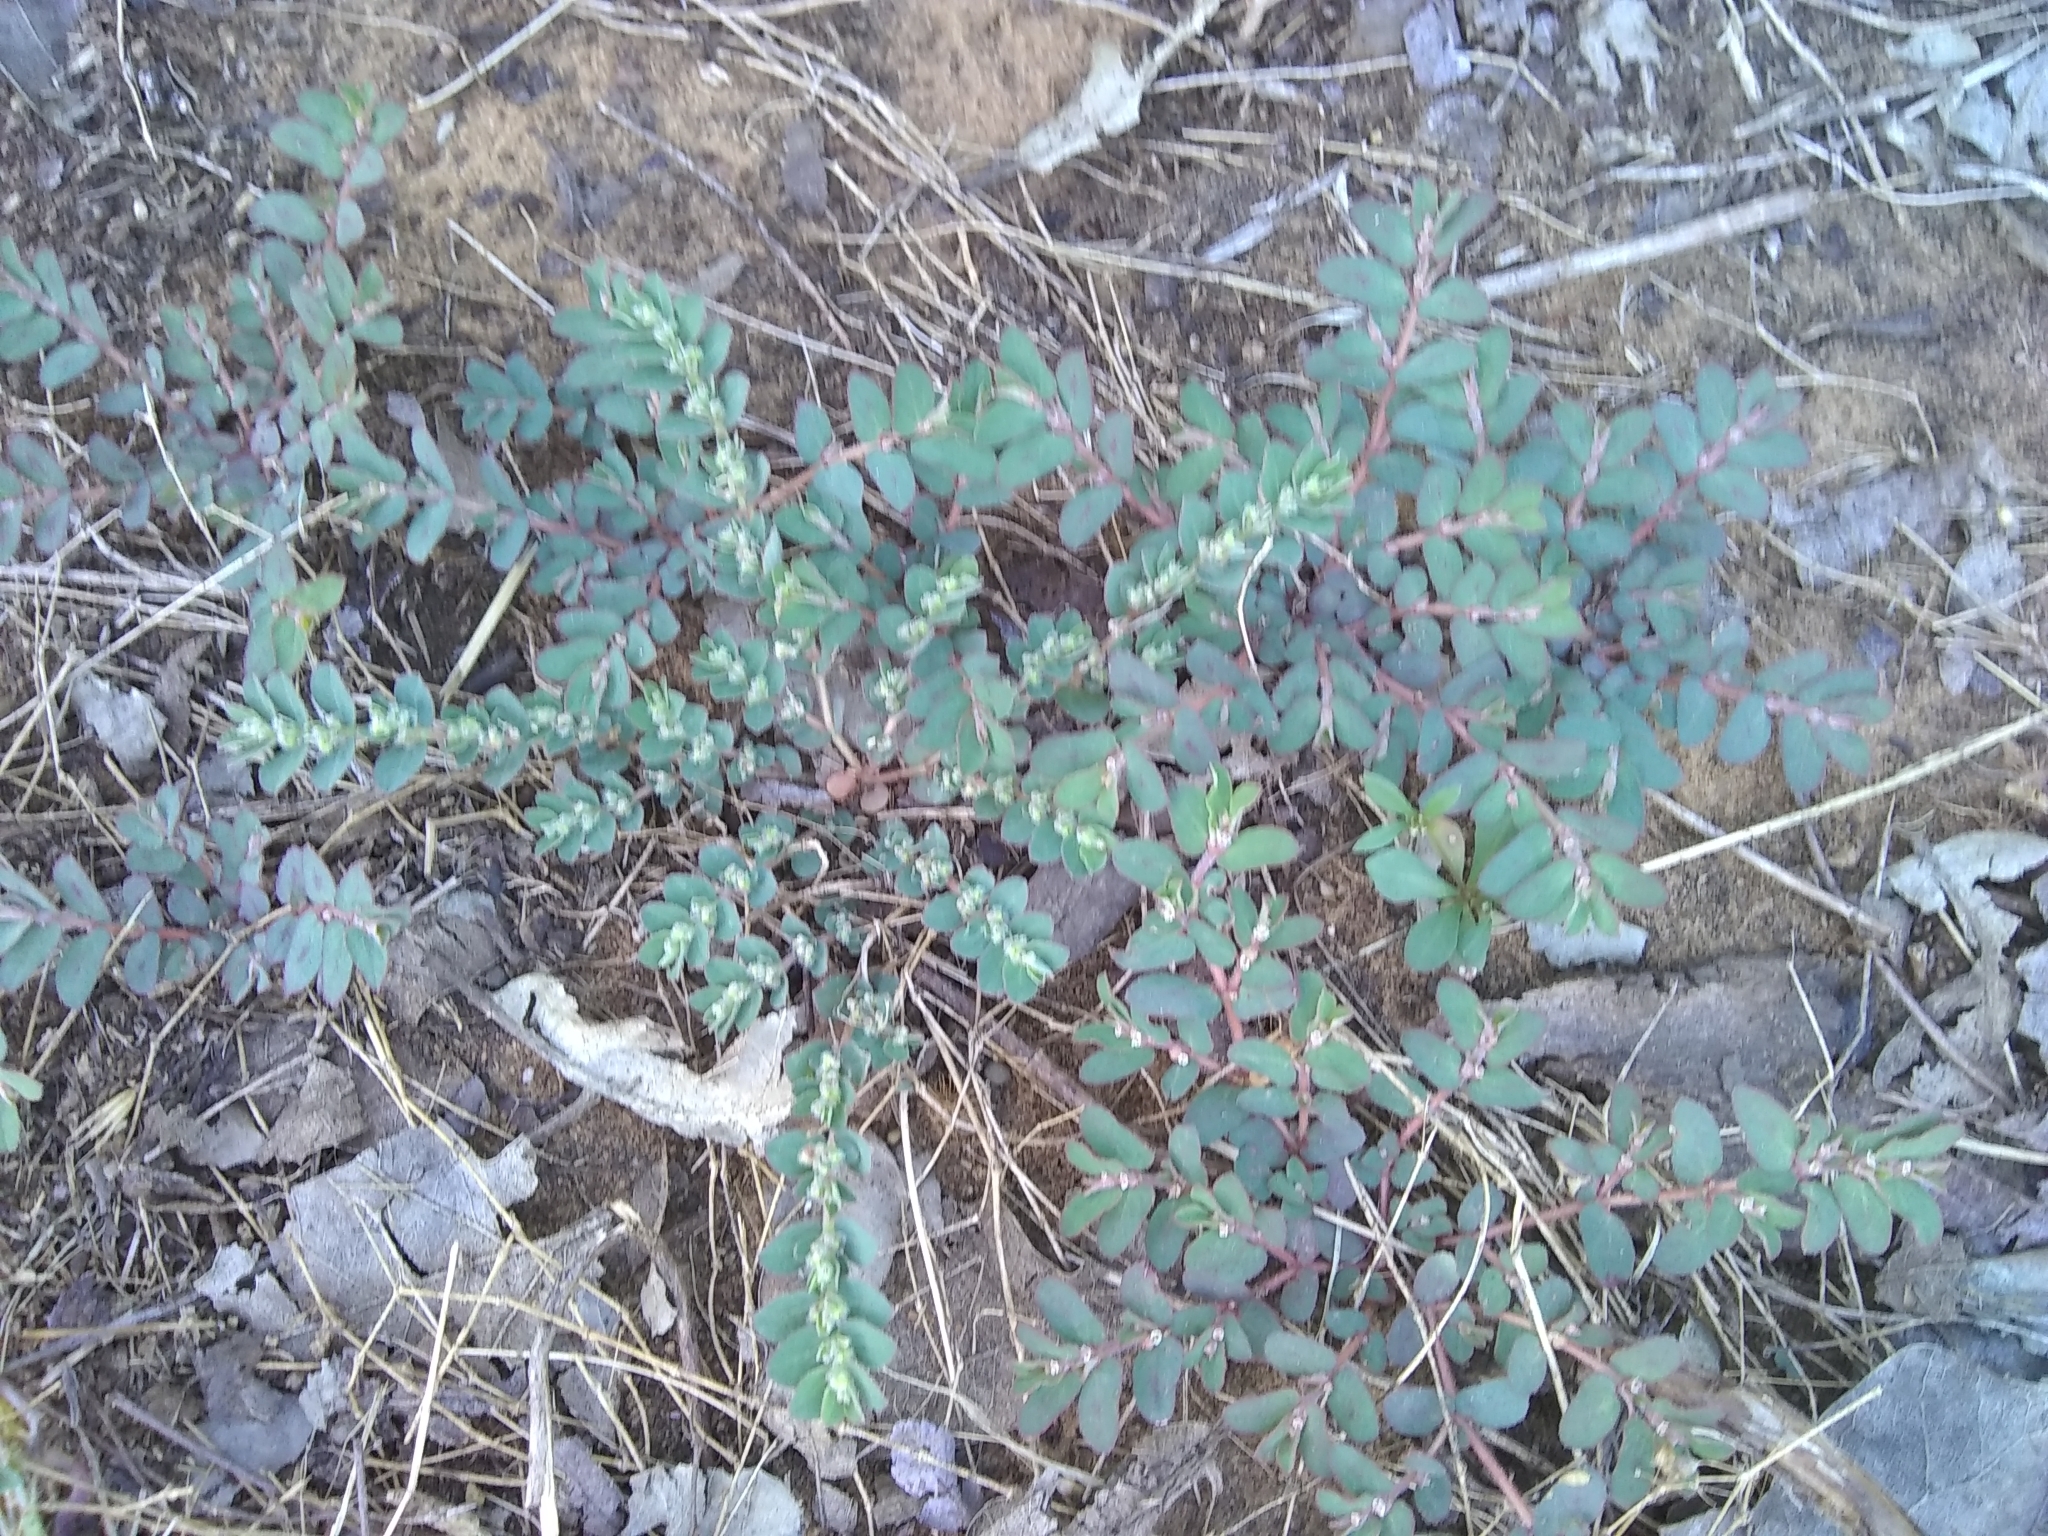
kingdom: Plantae
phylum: Tracheophyta
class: Magnoliopsida
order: Malpighiales
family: Euphorbiaceae
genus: Euphorbia
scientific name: Euphorbia prostrata
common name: Prostrate sandmat
